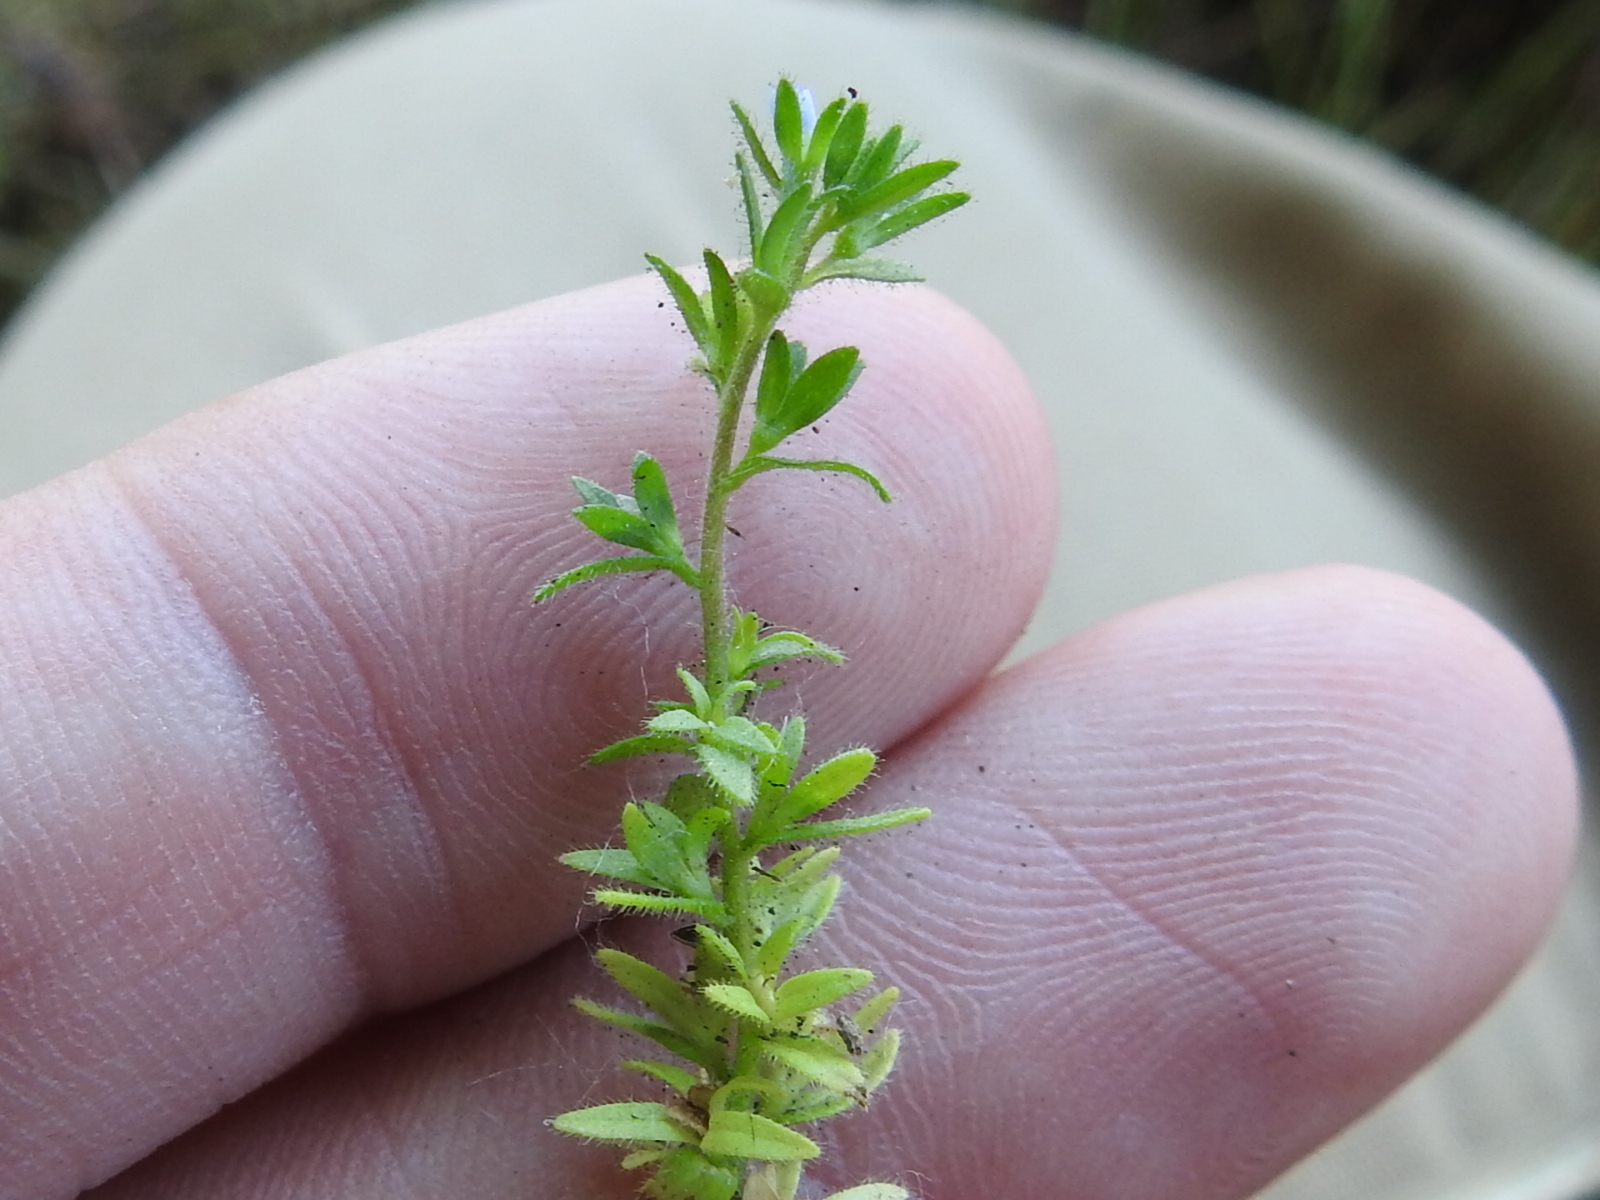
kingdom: Plantae
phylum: Tracheophyta
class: Magnoliopsida
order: Lamiales
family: Plantaginaceae
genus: Veronica
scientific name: Veronica arvensis
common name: Corn speedwell
